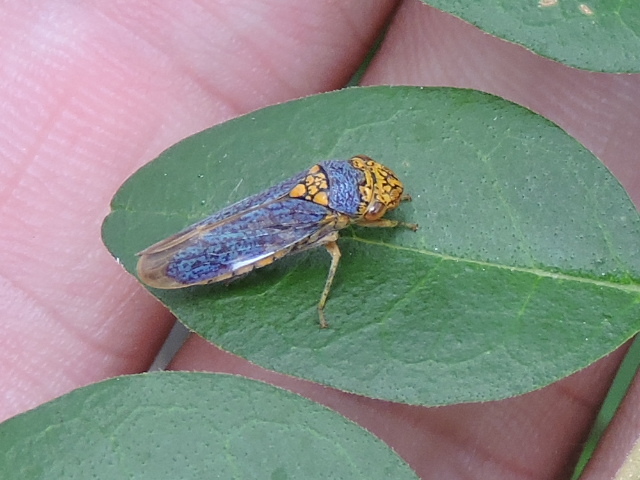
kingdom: Animalia
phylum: Arthropoda
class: Insecta
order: Hemiptera
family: Cicadellidae
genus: Oncometopia
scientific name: Oncometopia orbona
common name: Broad-headed sharpshooter
